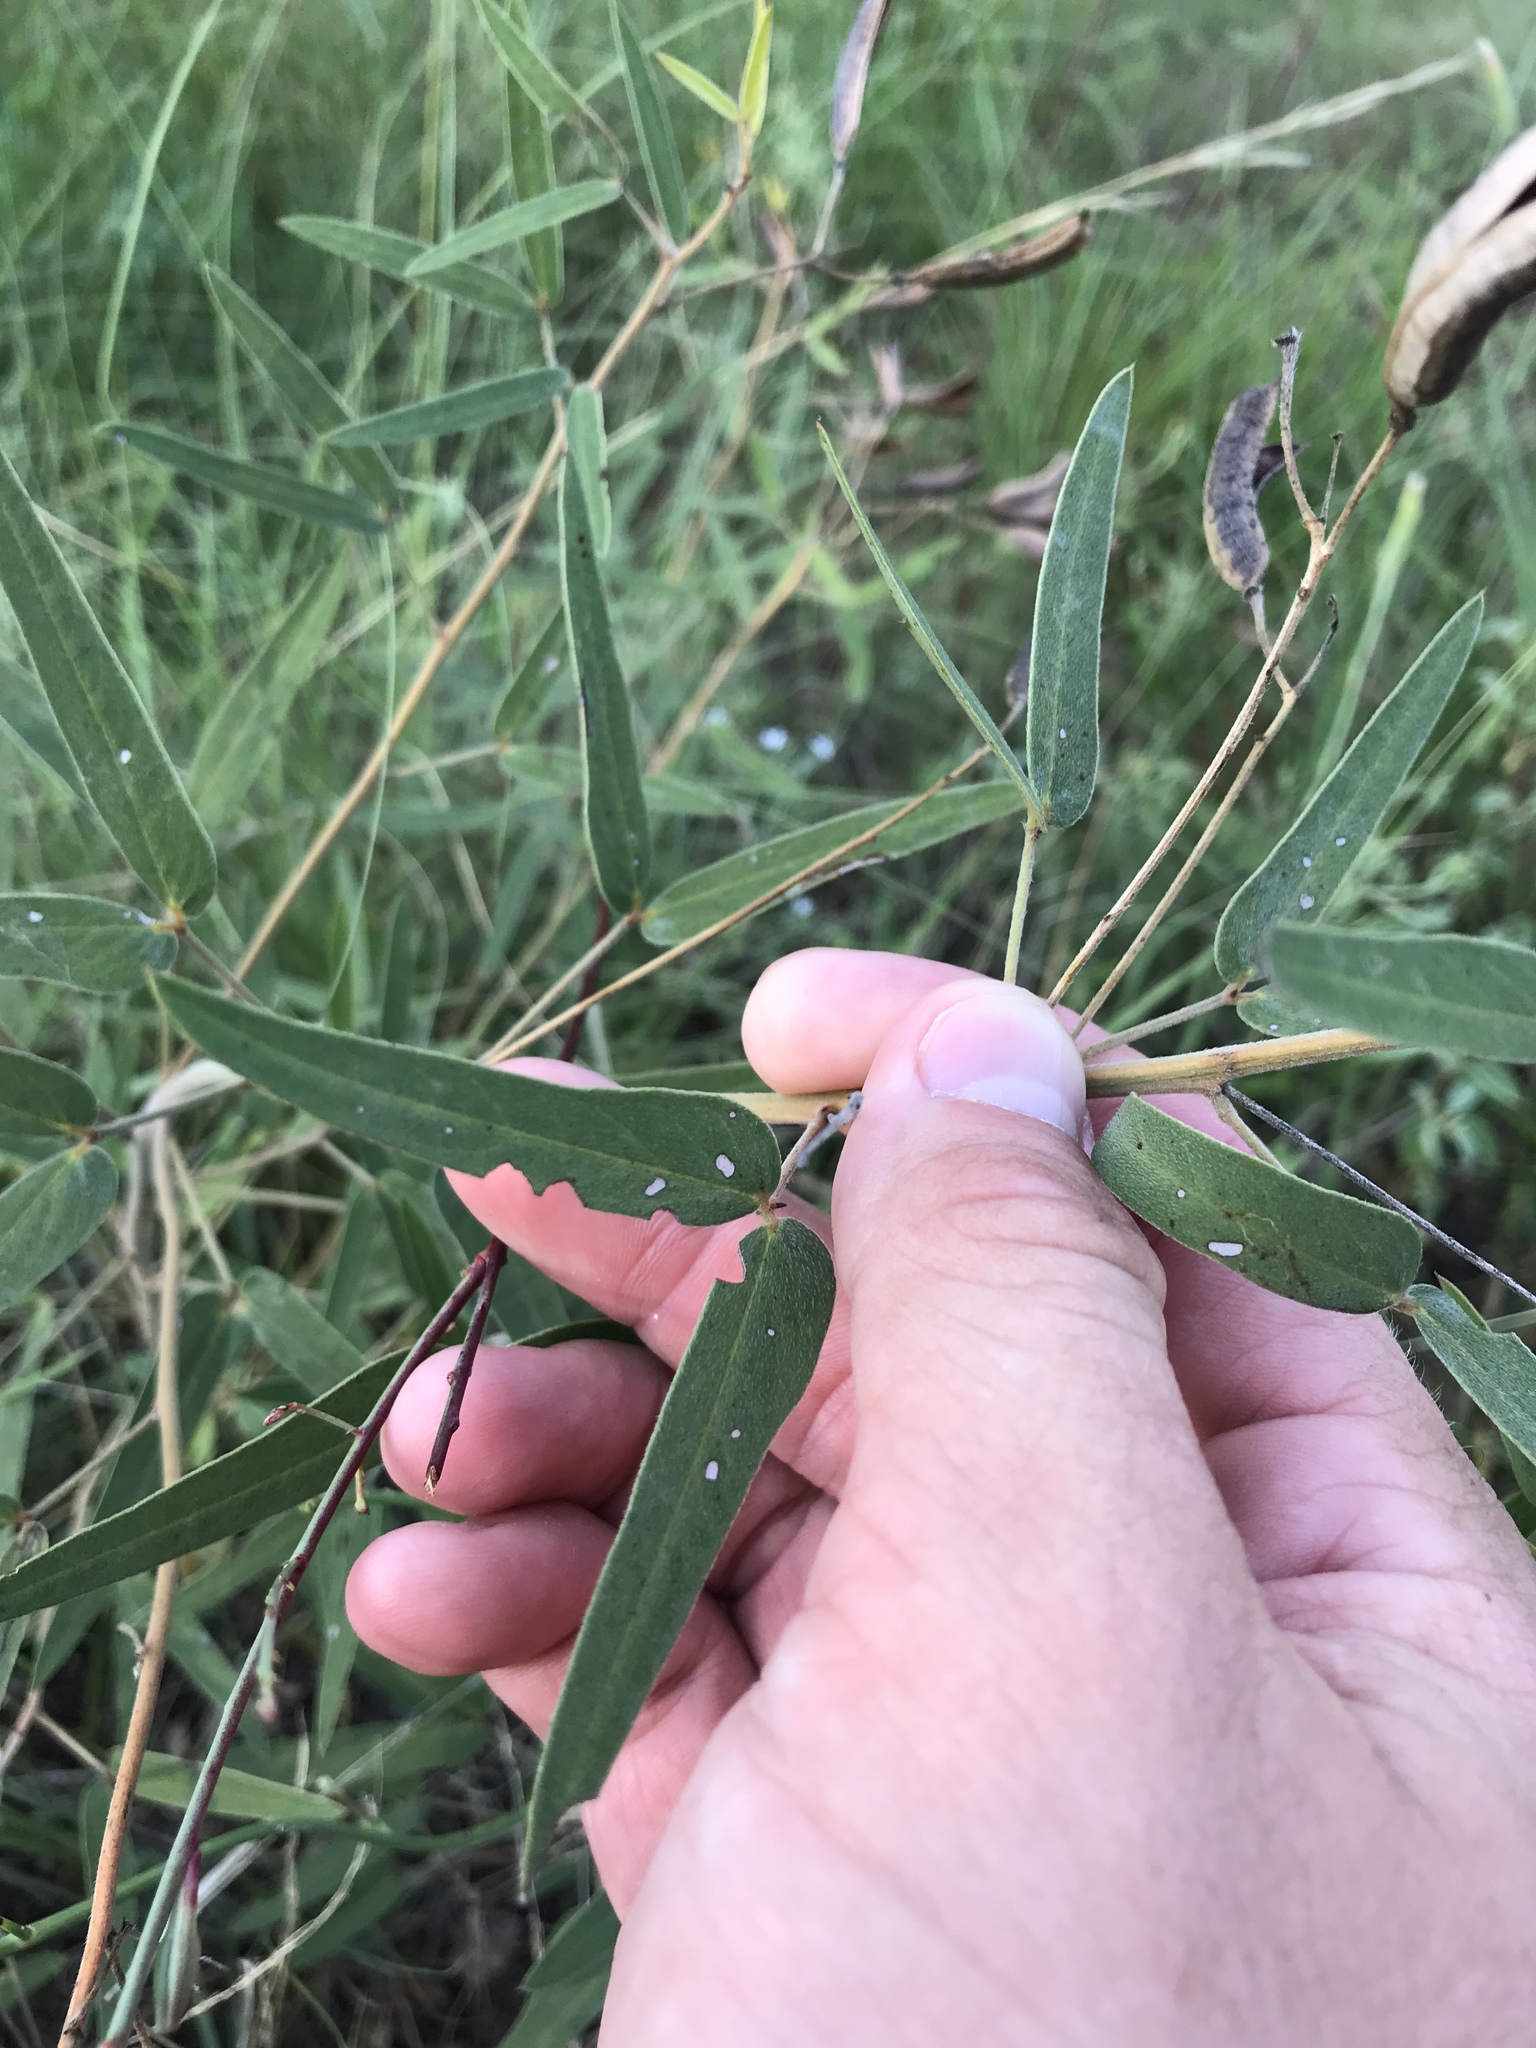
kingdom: Plantae
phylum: Tracheophyta
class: Magnoliopsida
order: Fabales
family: Fabaceae
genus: Senna
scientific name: Senna roemeriana
